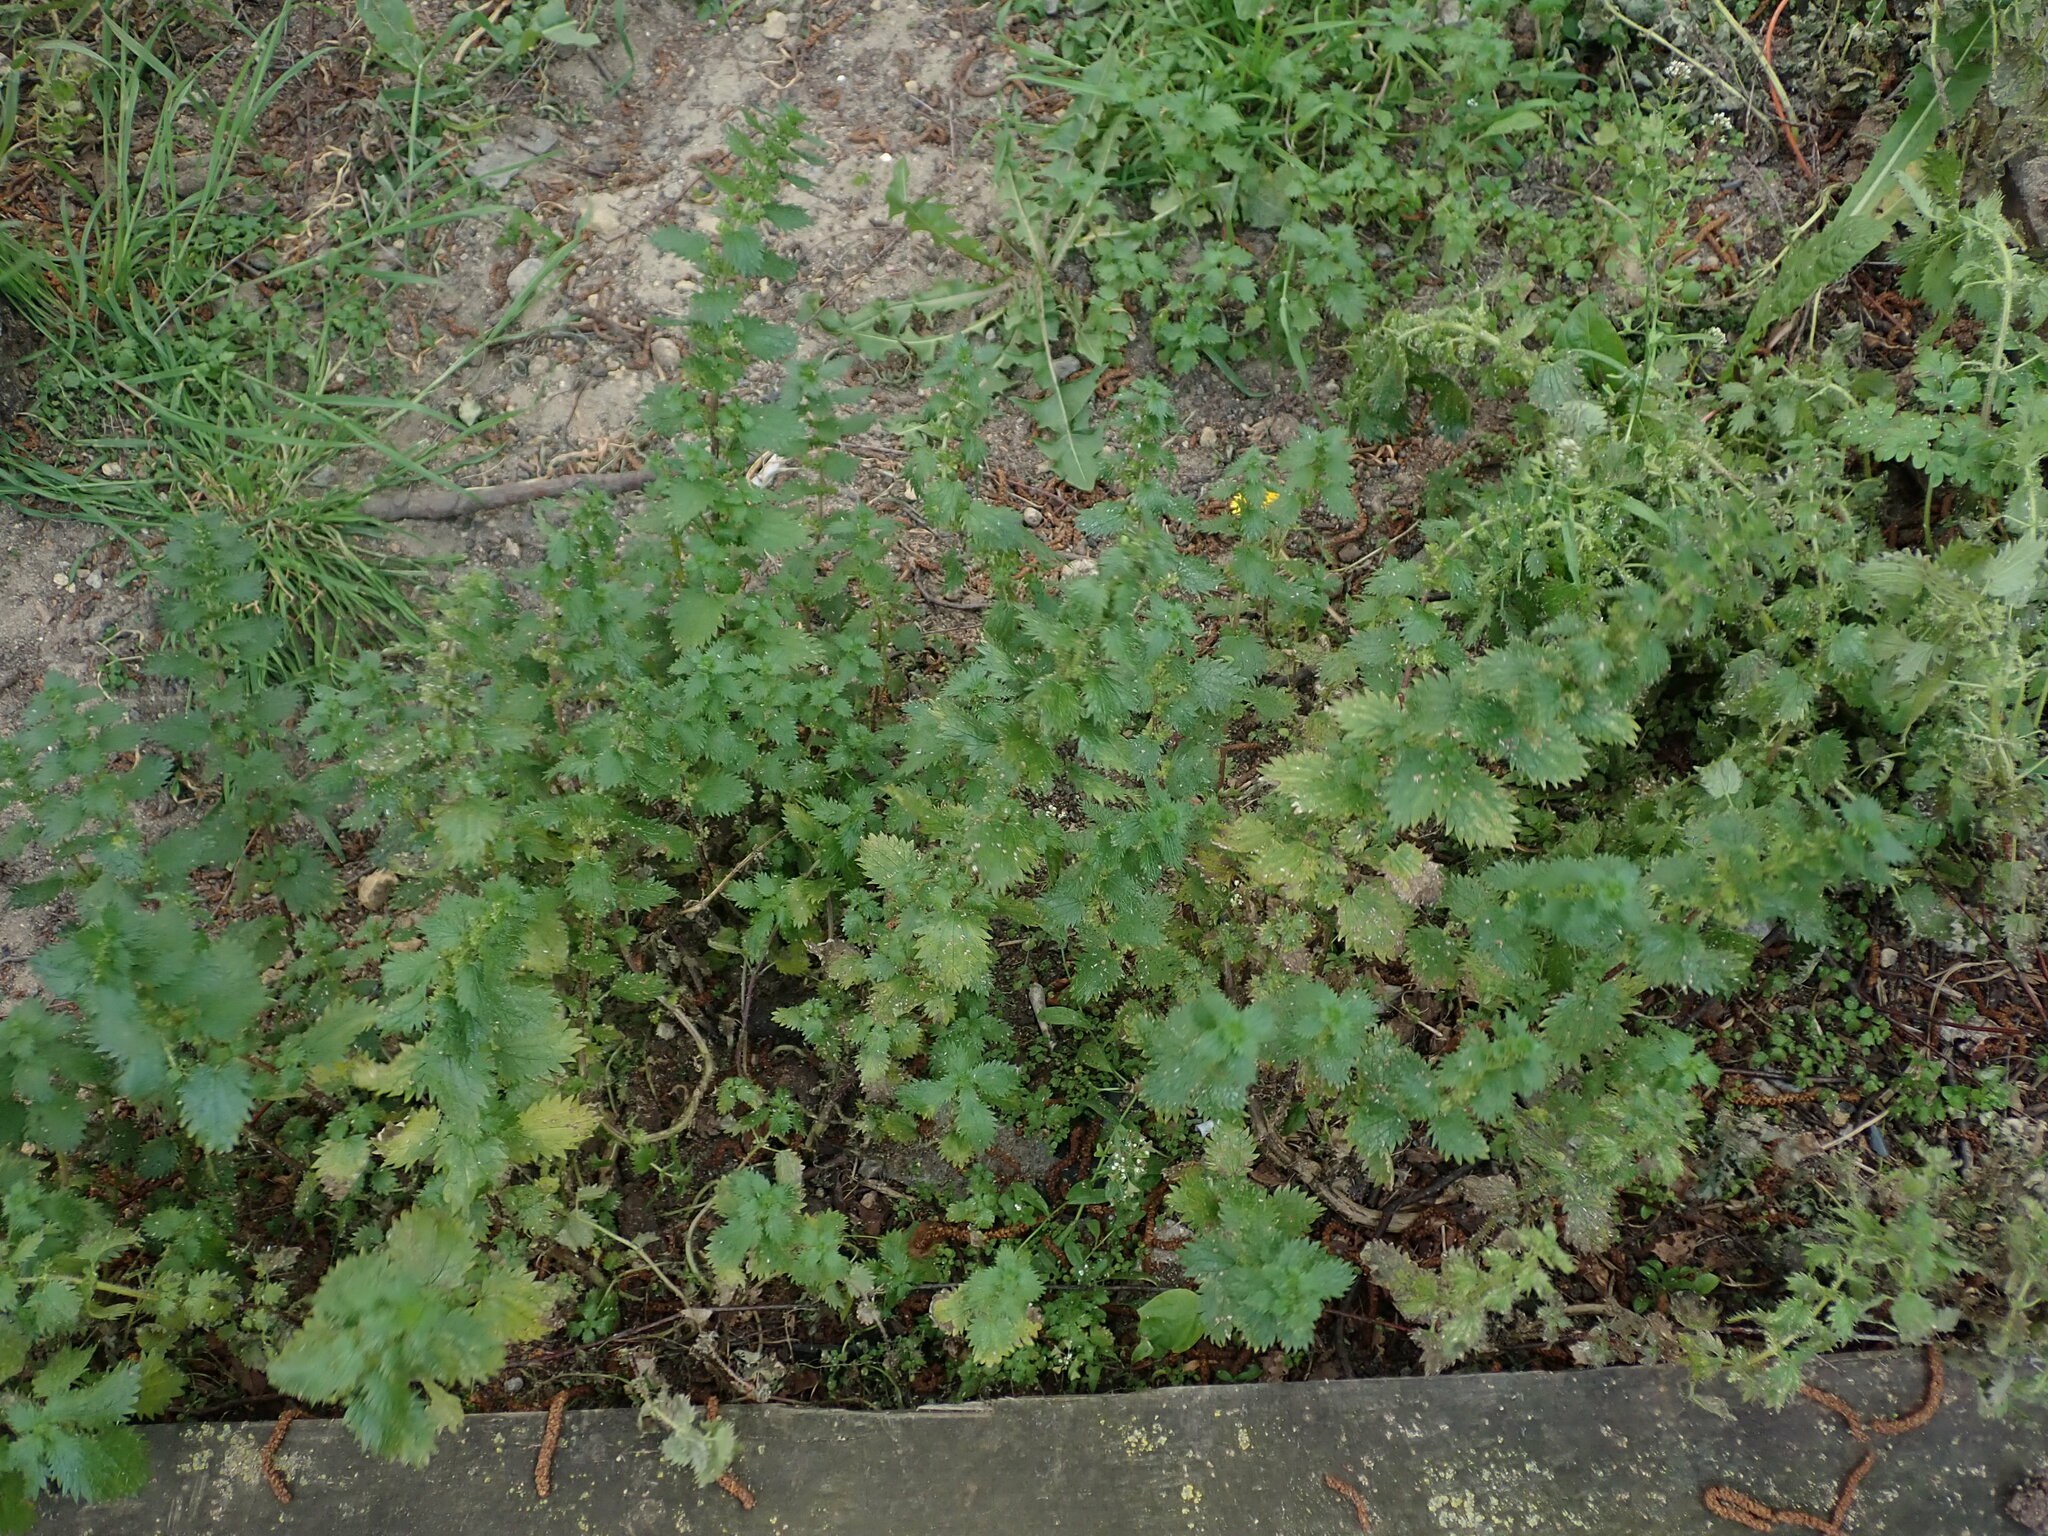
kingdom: Plantae
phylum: Tracheophyta
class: Magnoliopsida
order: Rosales
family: Urticaceae
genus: Urtica
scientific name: Urtica urens
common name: Dwarf nettle
